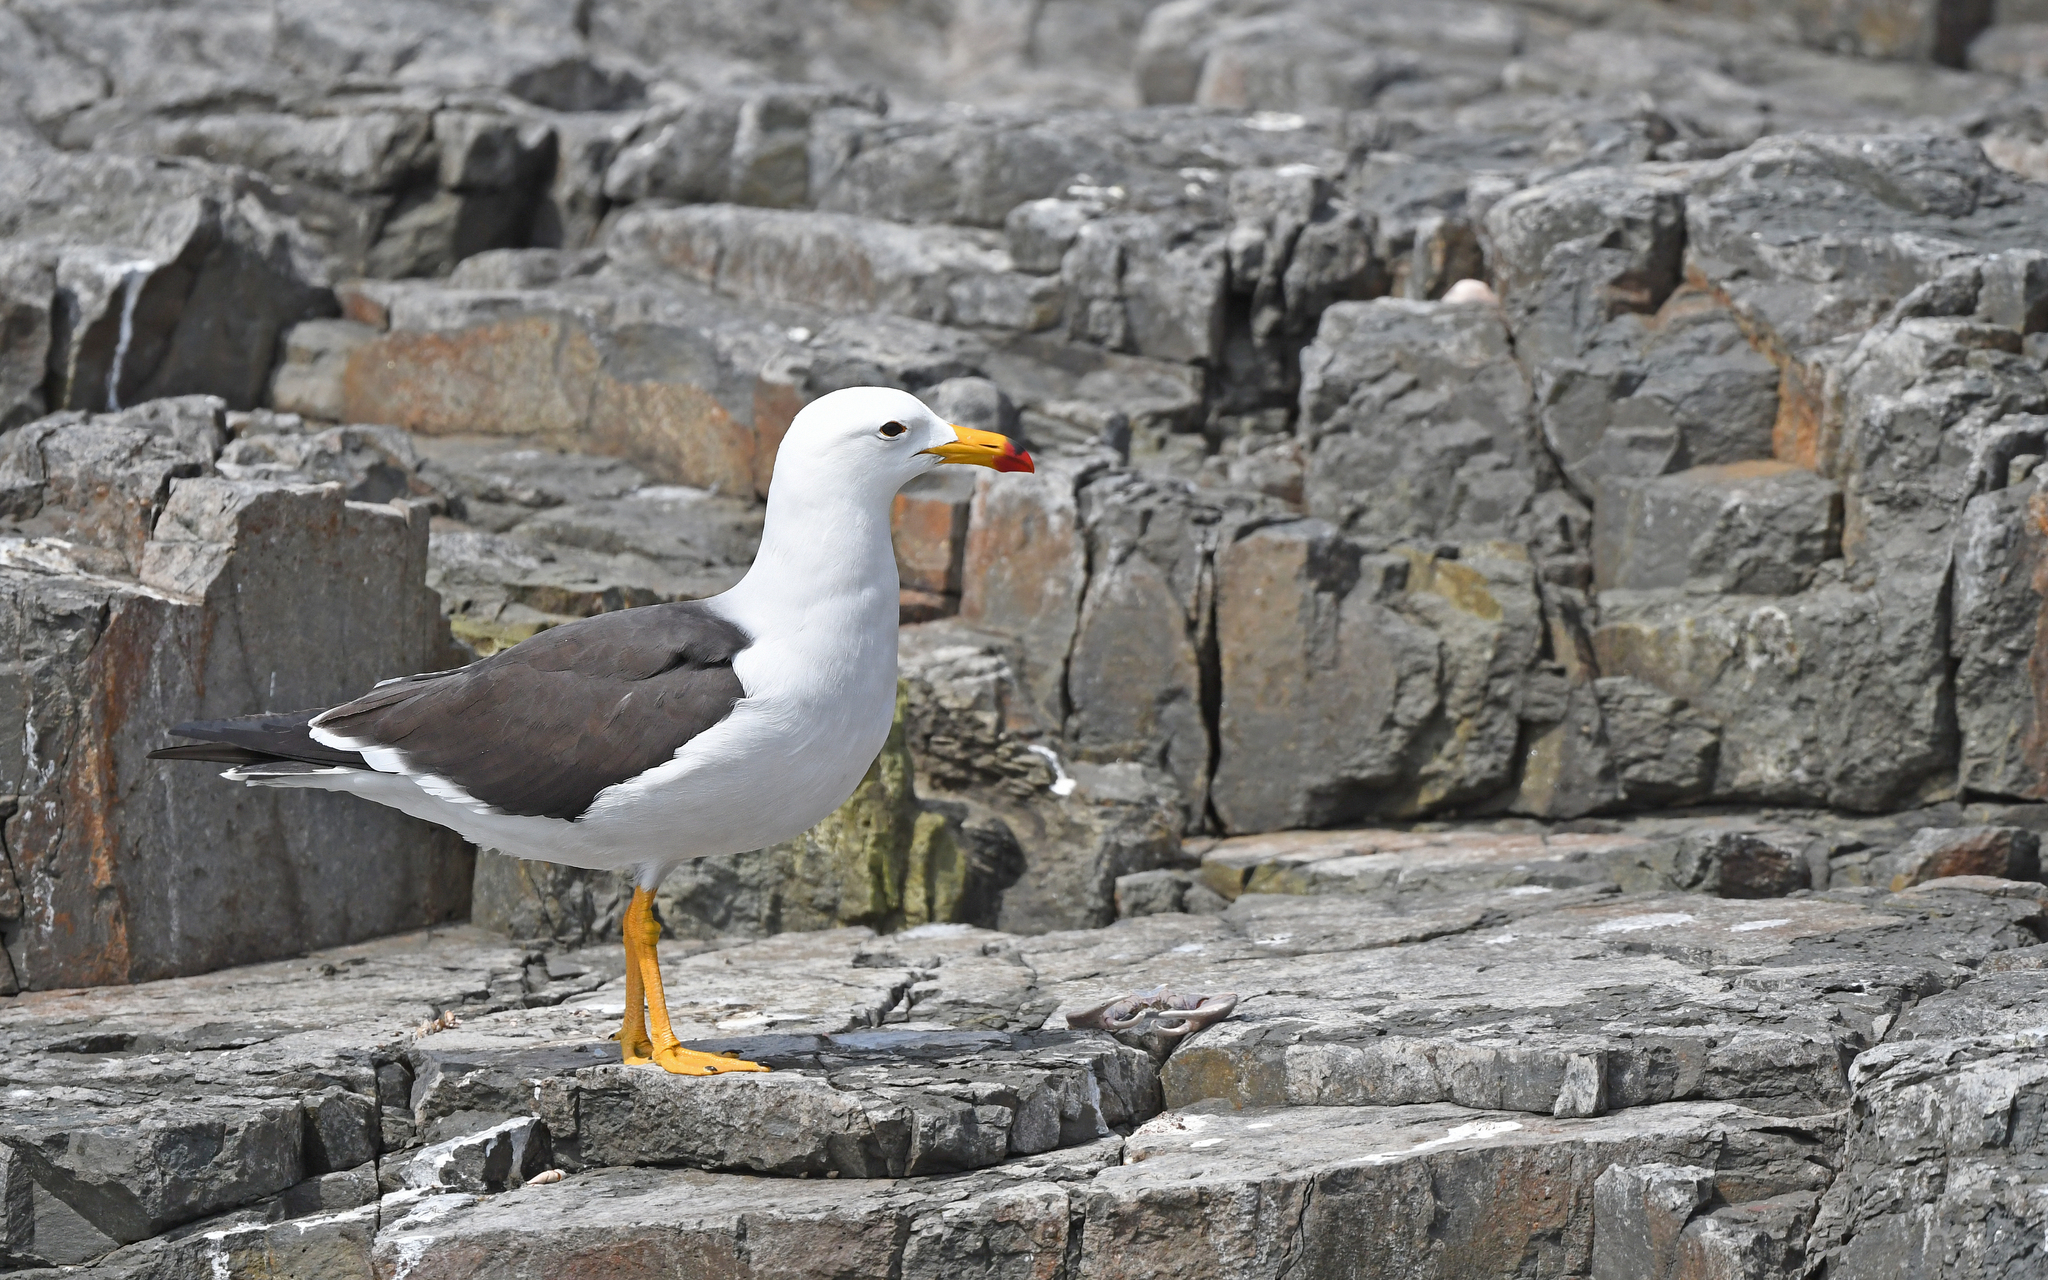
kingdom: Animalia
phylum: Chordata
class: Aves
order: Charadriiformes
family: Laridae
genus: Larus
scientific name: Larus belcheri
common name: Belcher's gull
